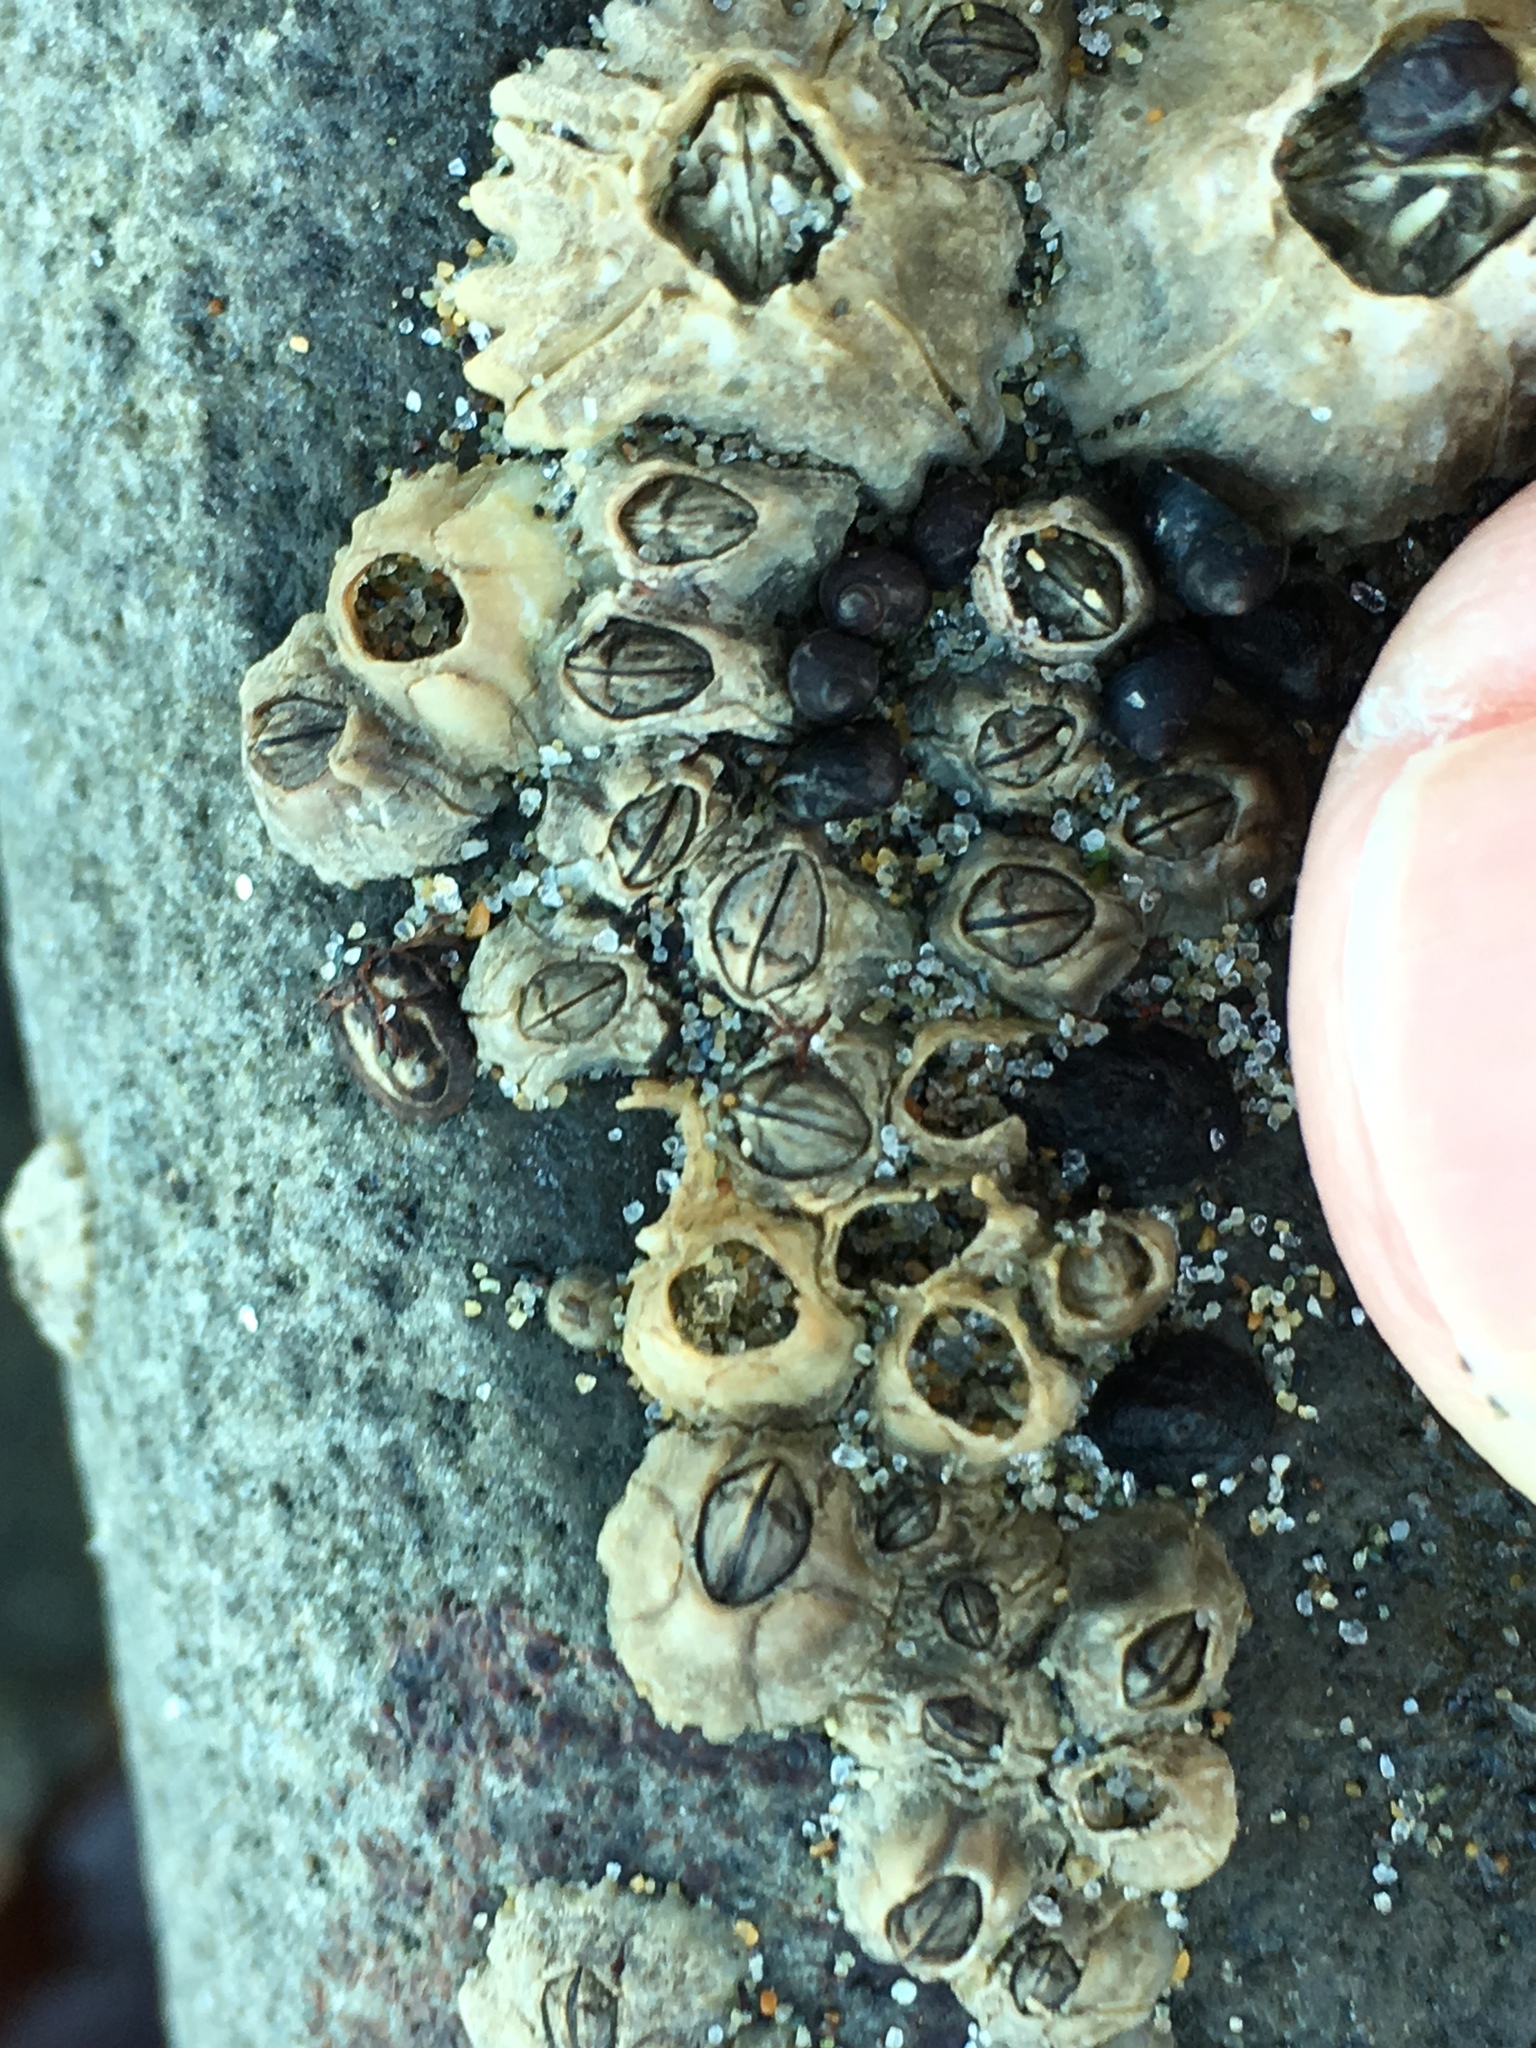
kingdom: Animalia
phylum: Arthropoda
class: Maxillopoda
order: Sessilia
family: Balanidae
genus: Balanus
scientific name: Balanus glandula
